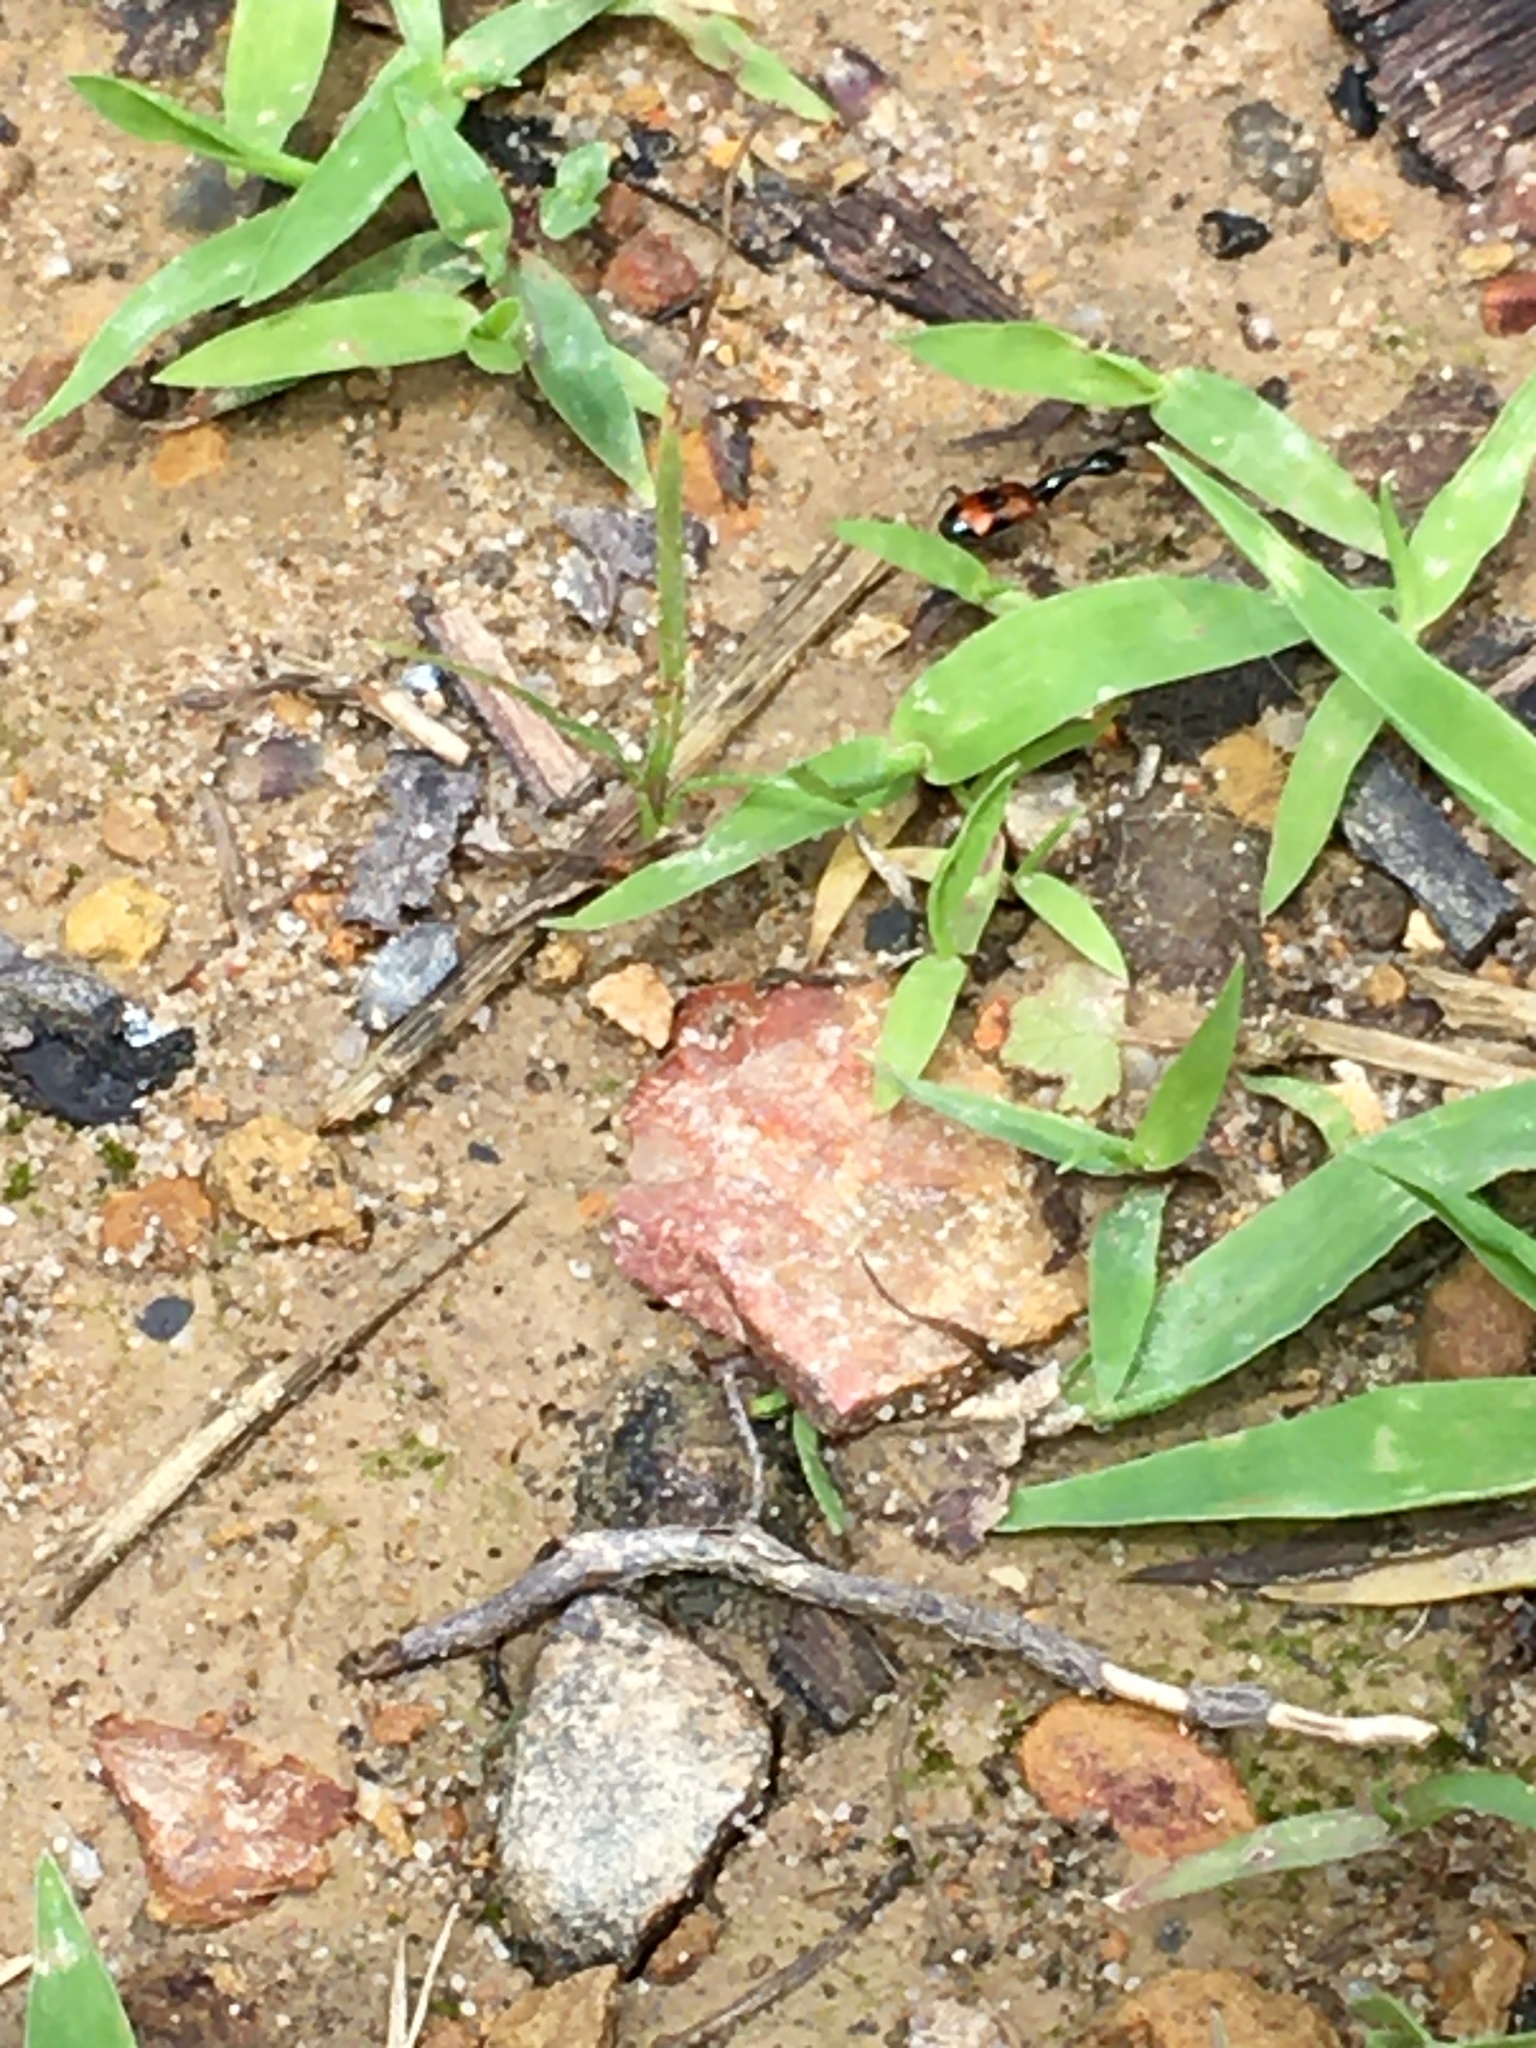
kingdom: Animalia
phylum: Arthropoda
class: Insecta
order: Coleoptera
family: Carabidae
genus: Colliuris
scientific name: Colliuris pensylvanica
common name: Long-necked ground beetle
